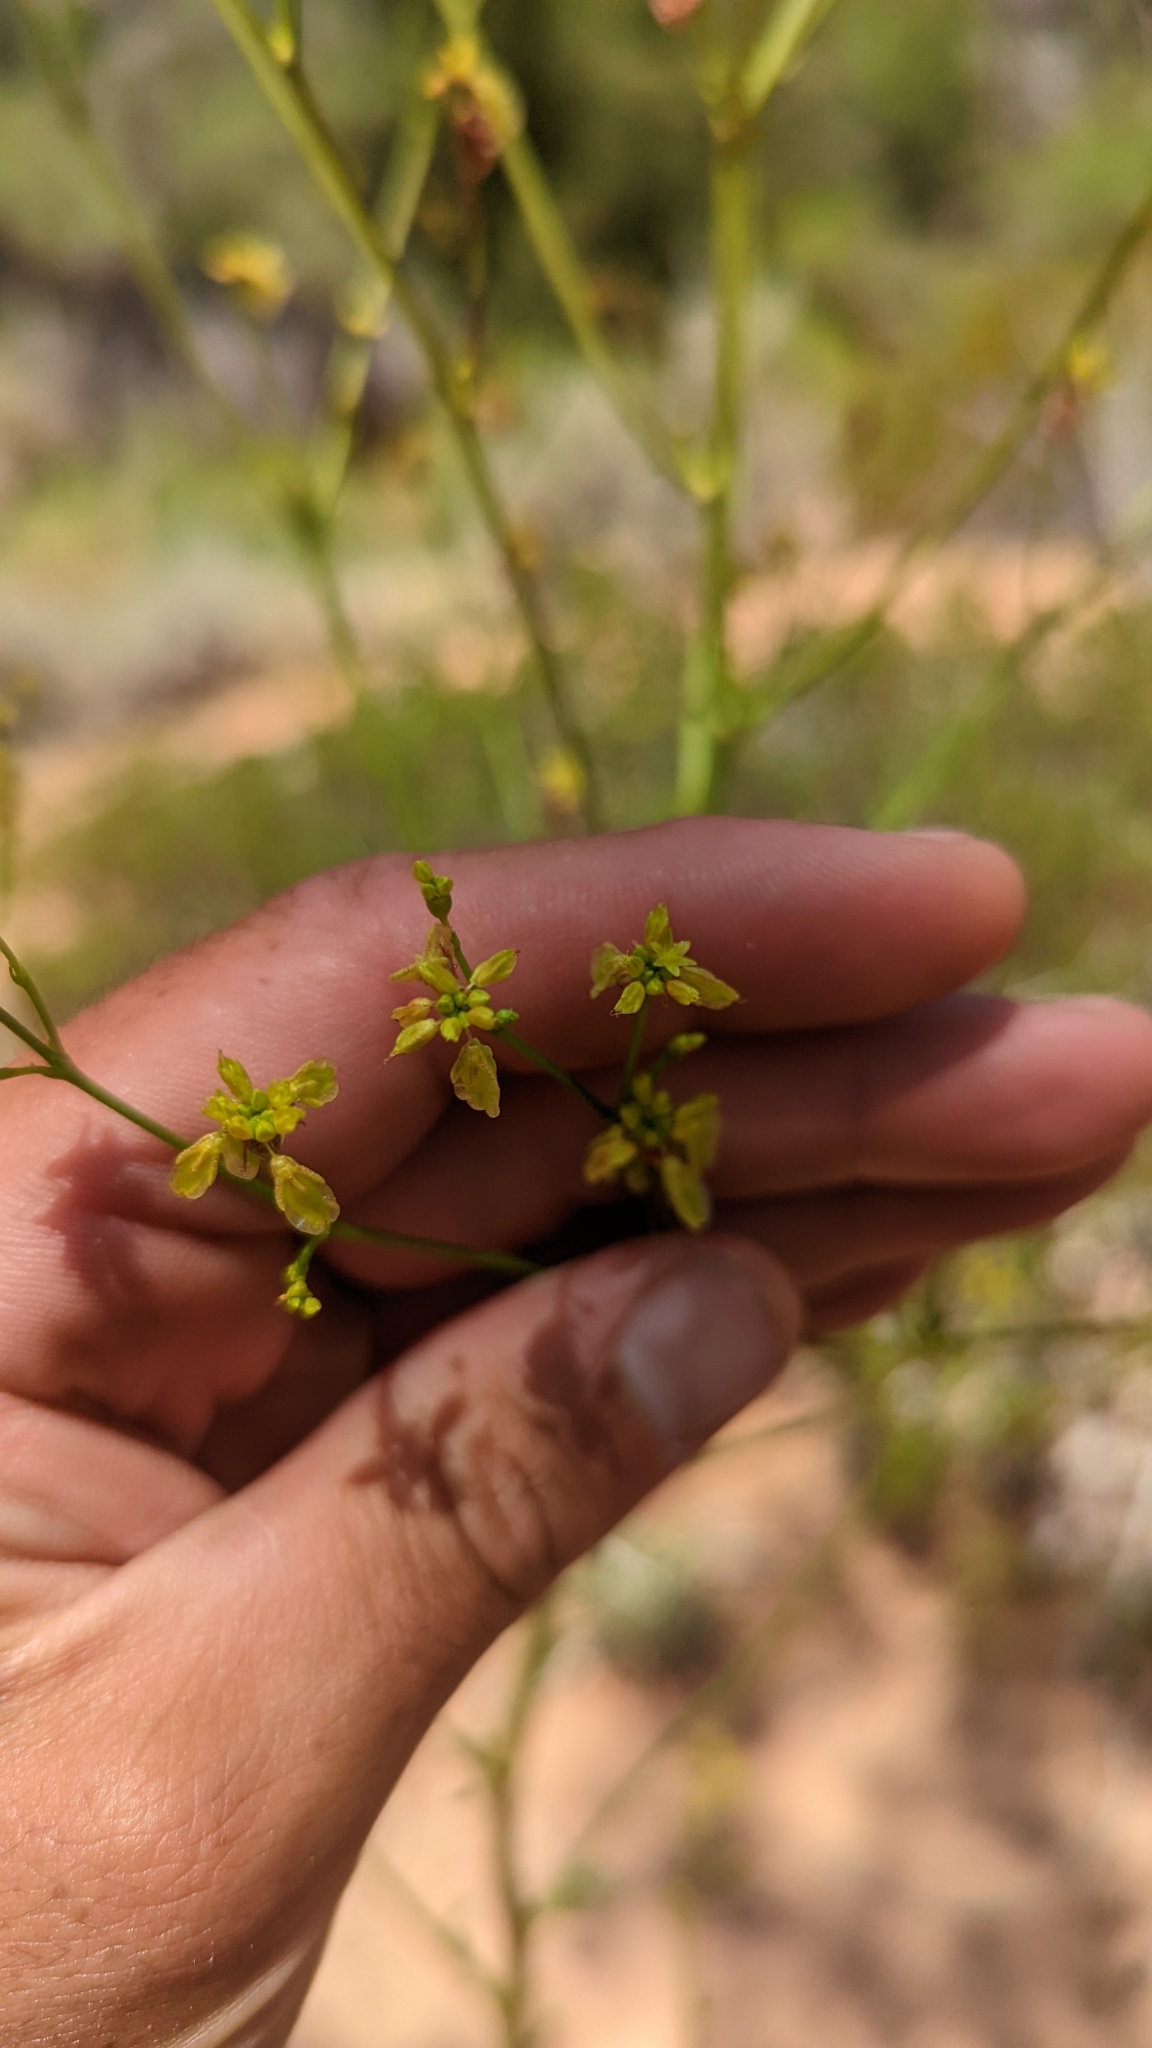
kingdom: Plantae
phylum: Tracheophyta
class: Magnoliopsida
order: Caryophyllales
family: Polygonaceae
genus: Eriogonum
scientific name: Eriogonum alatum
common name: Winged eriogonum
